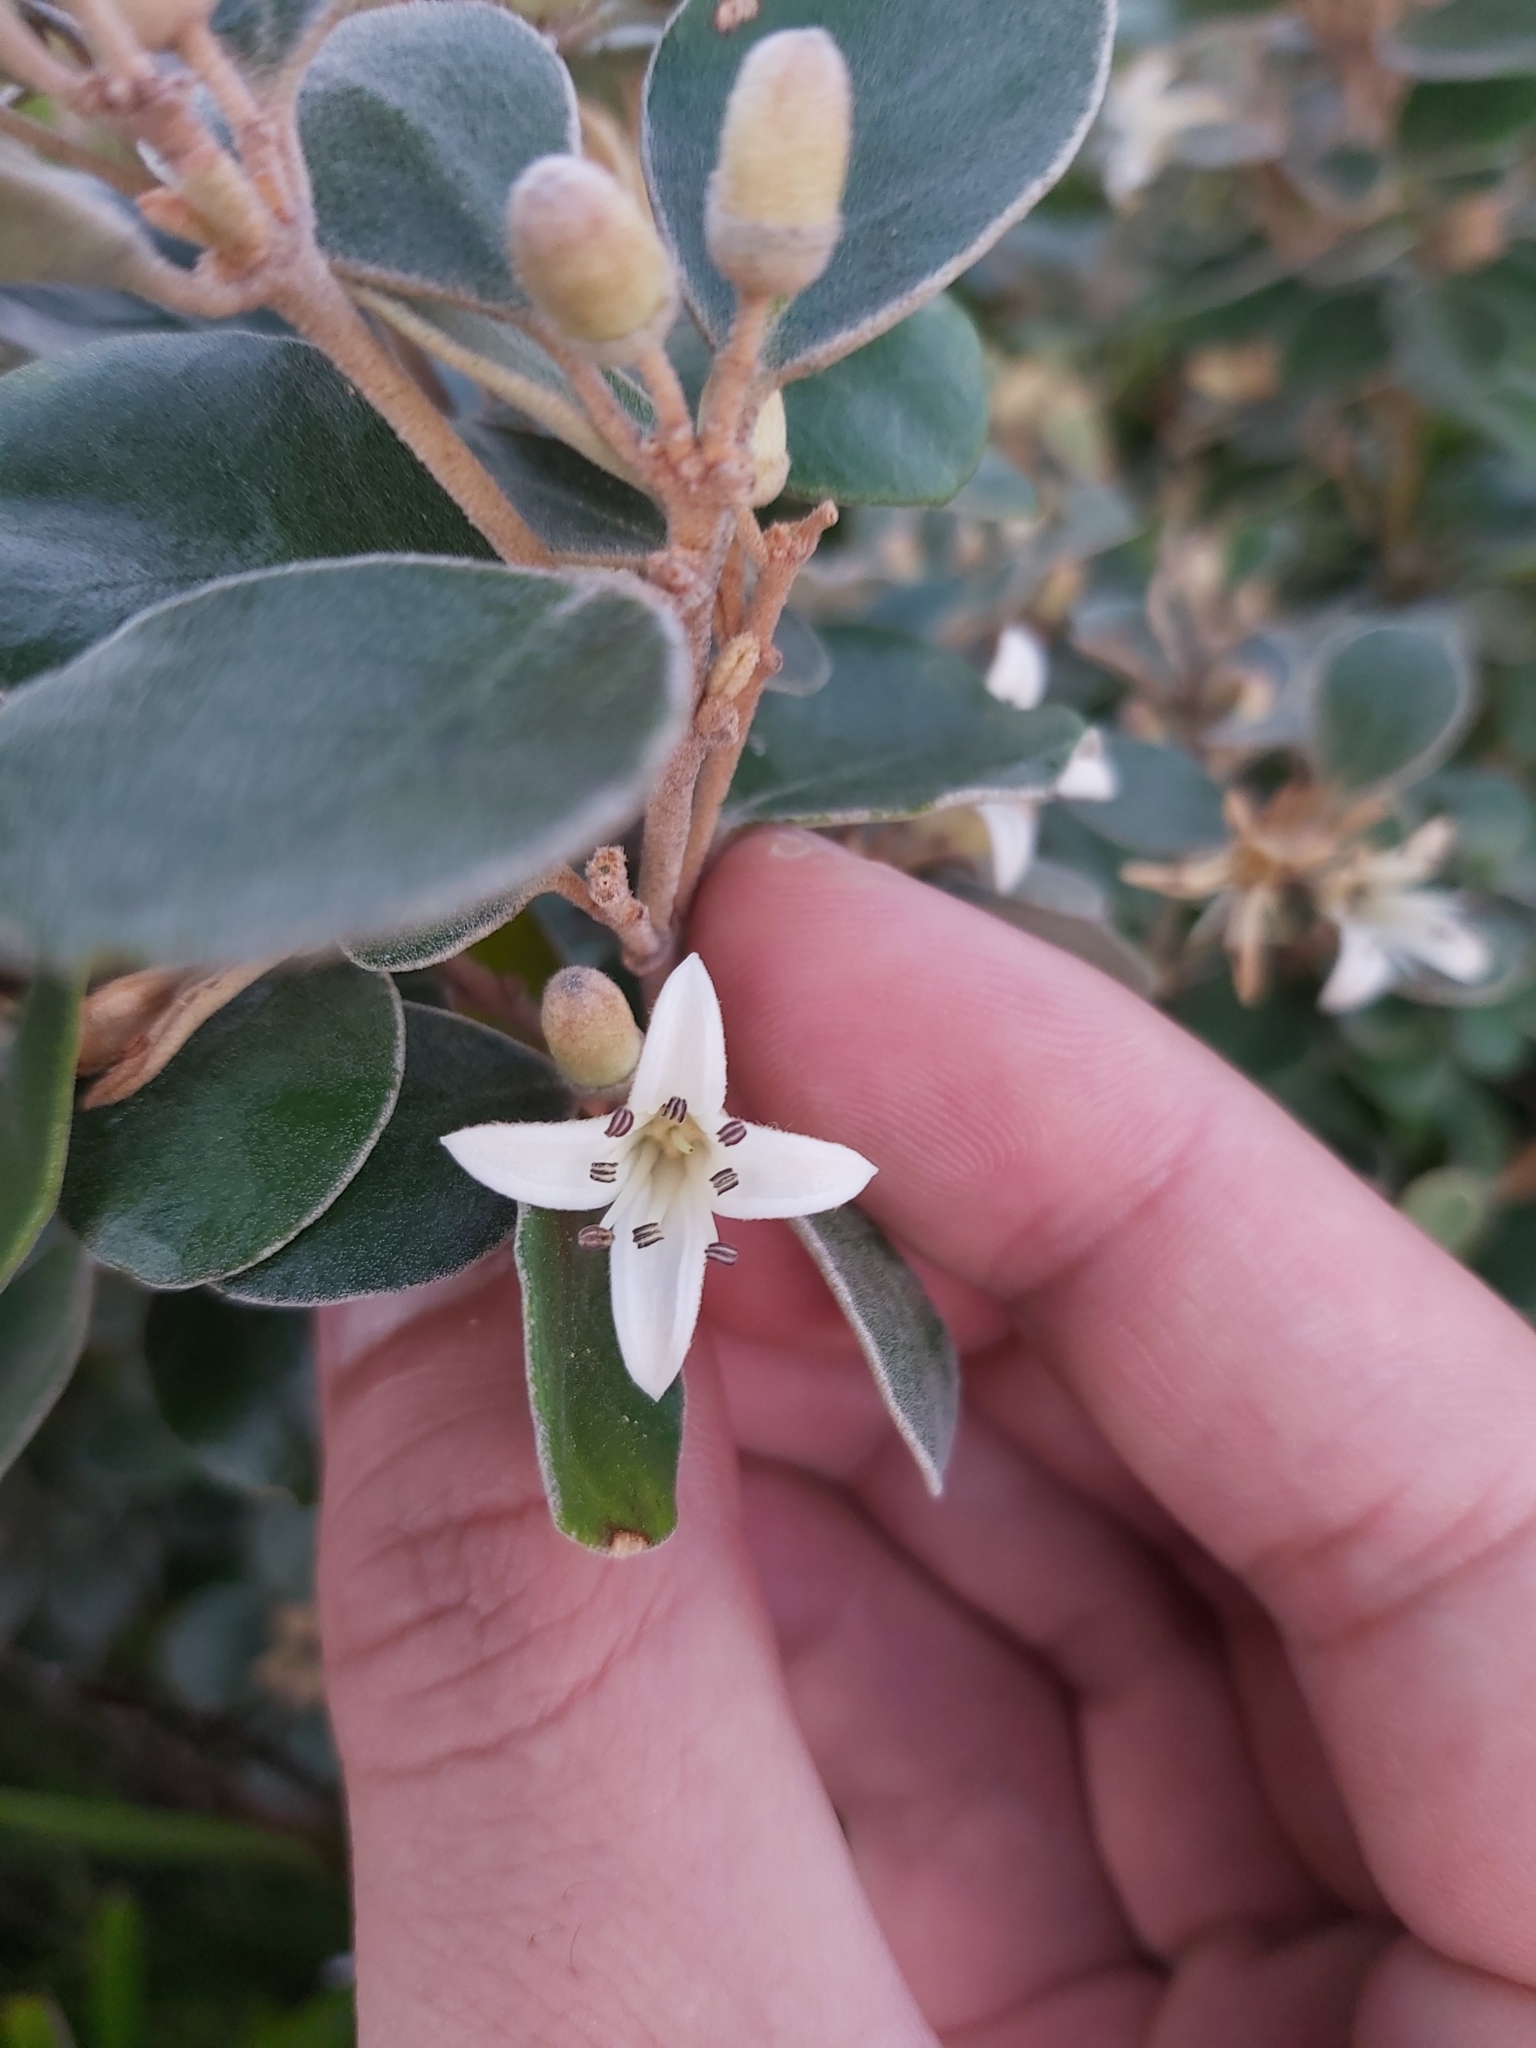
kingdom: Plantae
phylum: Tracheophyta
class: Magnoliopsida
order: Sapindales
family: Rutaceae
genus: Correa
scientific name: Correa alba
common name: White correa
